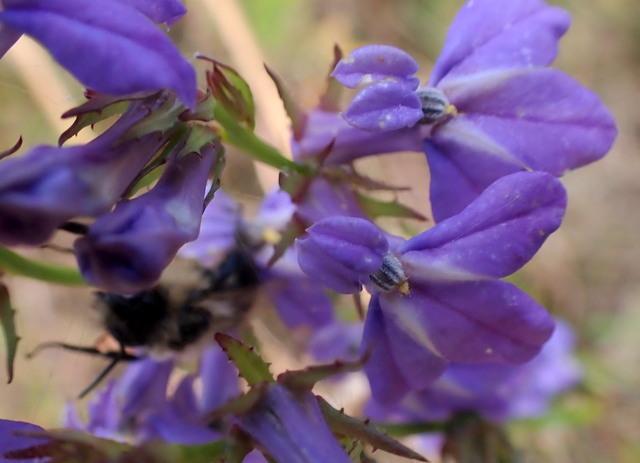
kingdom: Plantae
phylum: Tracheophyta
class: Magnoliopsida
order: Asterales
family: Campanulaceae
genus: Lobelia
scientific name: Lobelia glandulosa
